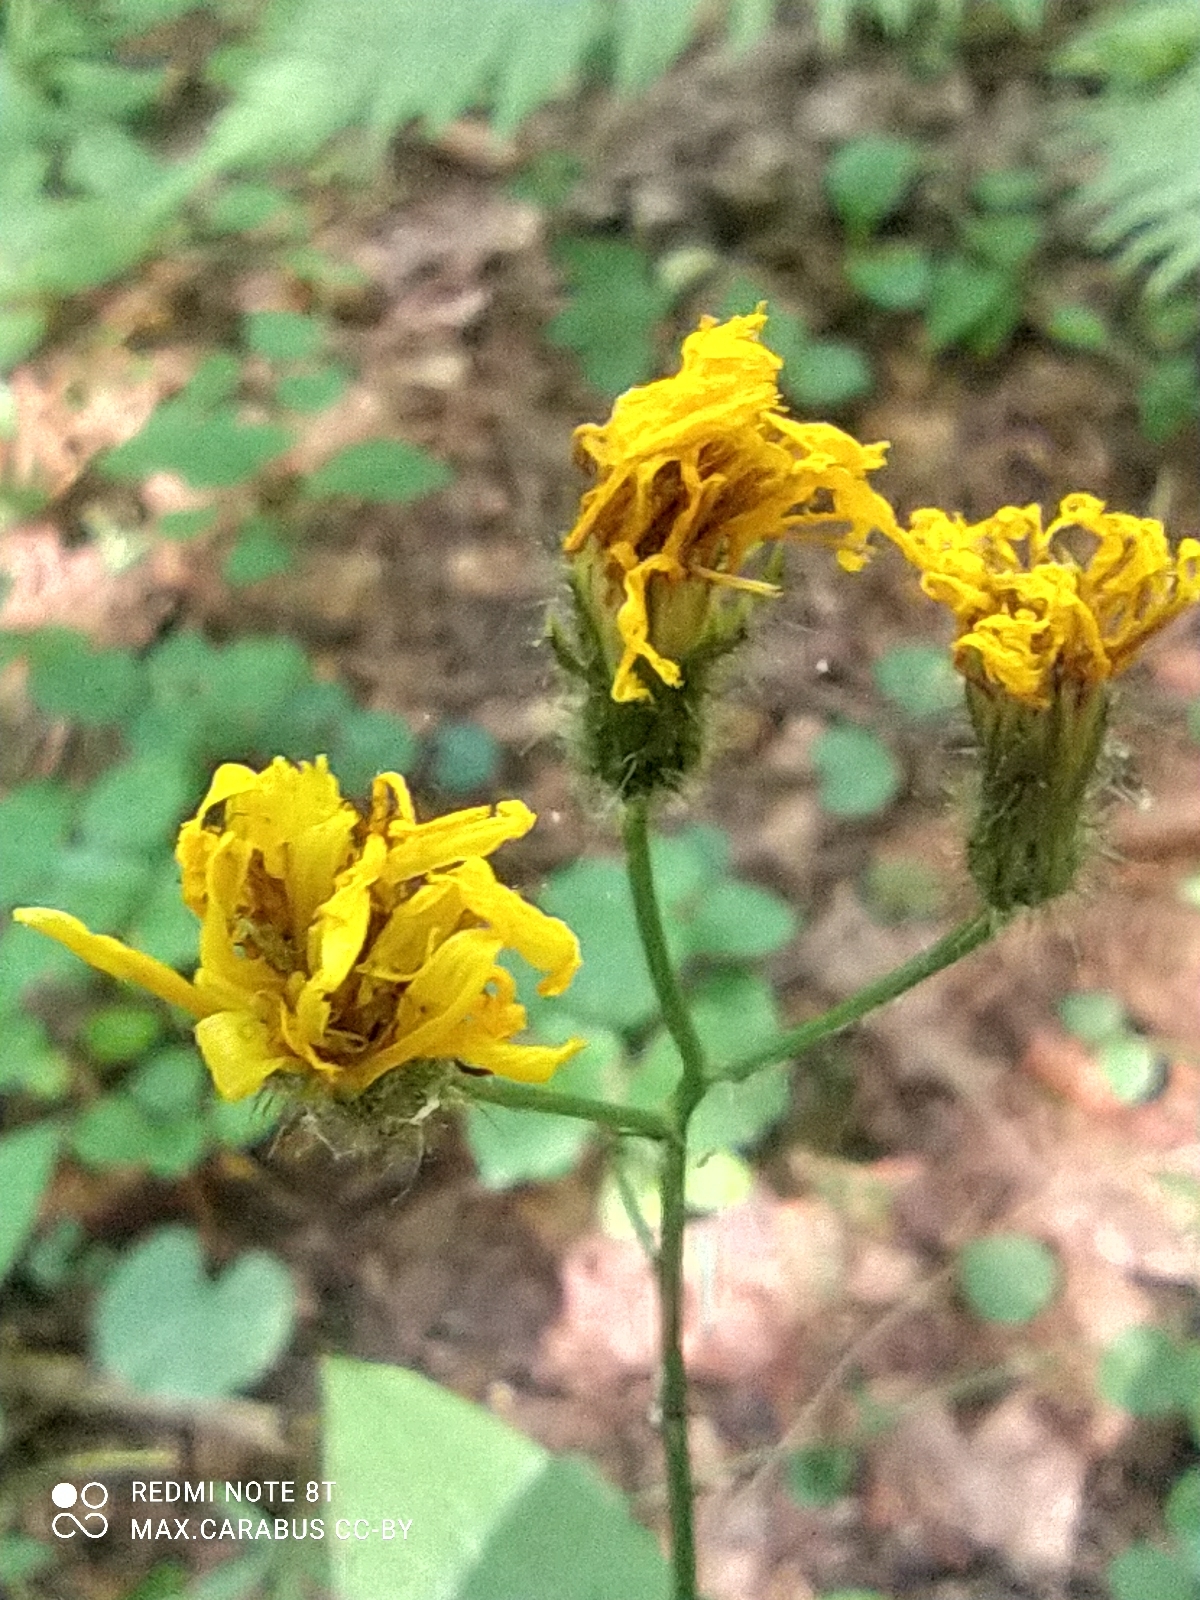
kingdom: Plantae
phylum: Tracheophyta
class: Magnoliopsida
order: Asterales
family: Asteraceae
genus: Crepis
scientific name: Crepis paludosa
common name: Marsh hawk's-beard
